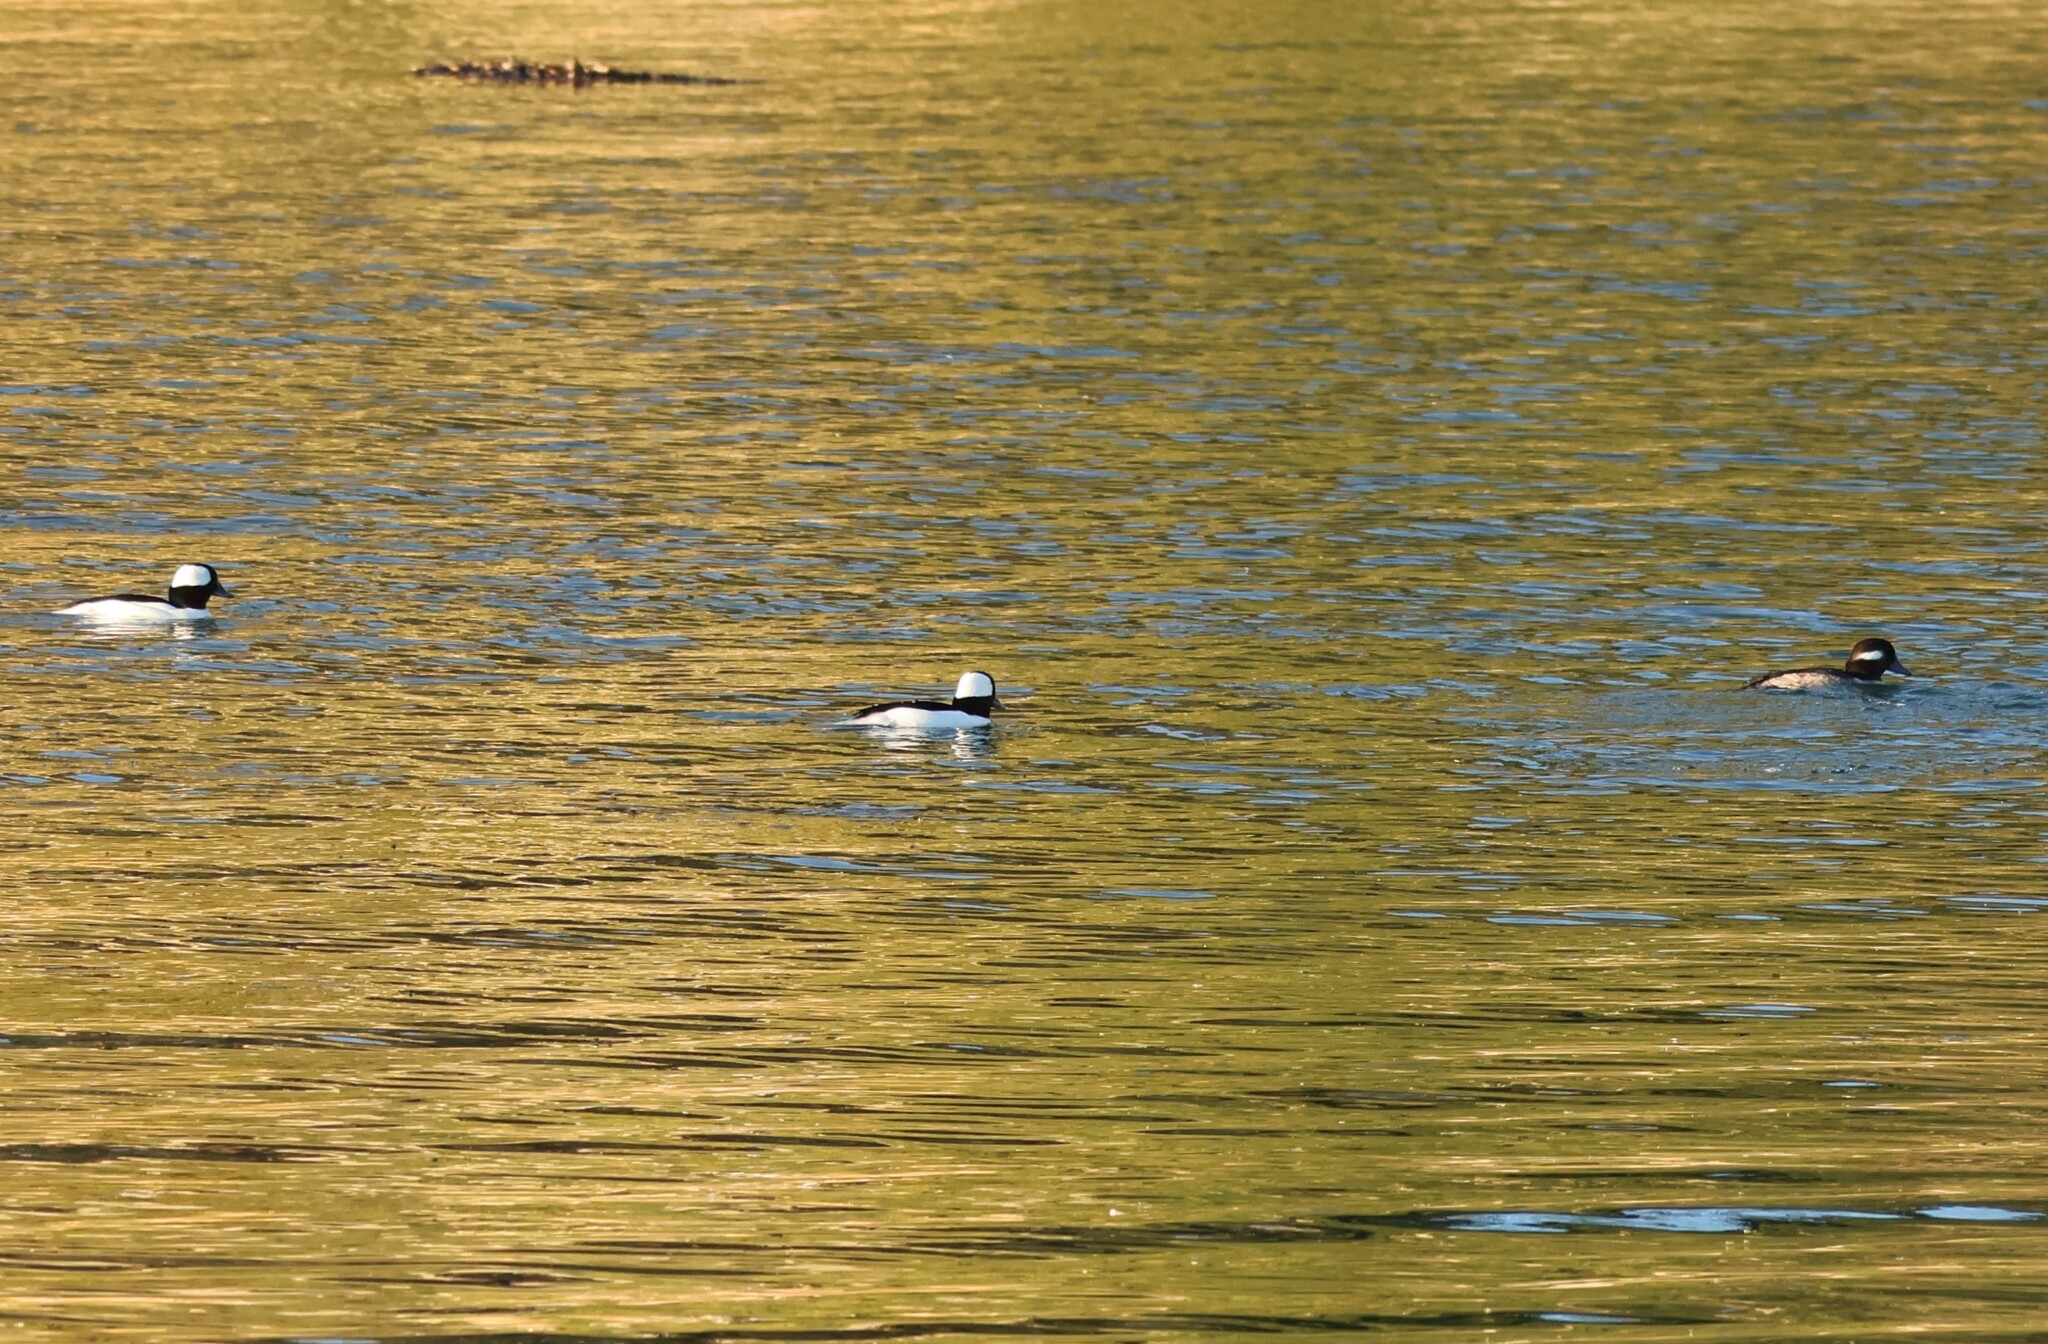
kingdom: Animalia
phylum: Chordata
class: Aves
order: Anseriformes
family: Anatidae
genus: Bucephala
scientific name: Bucephala albeola
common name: Bufflehead
